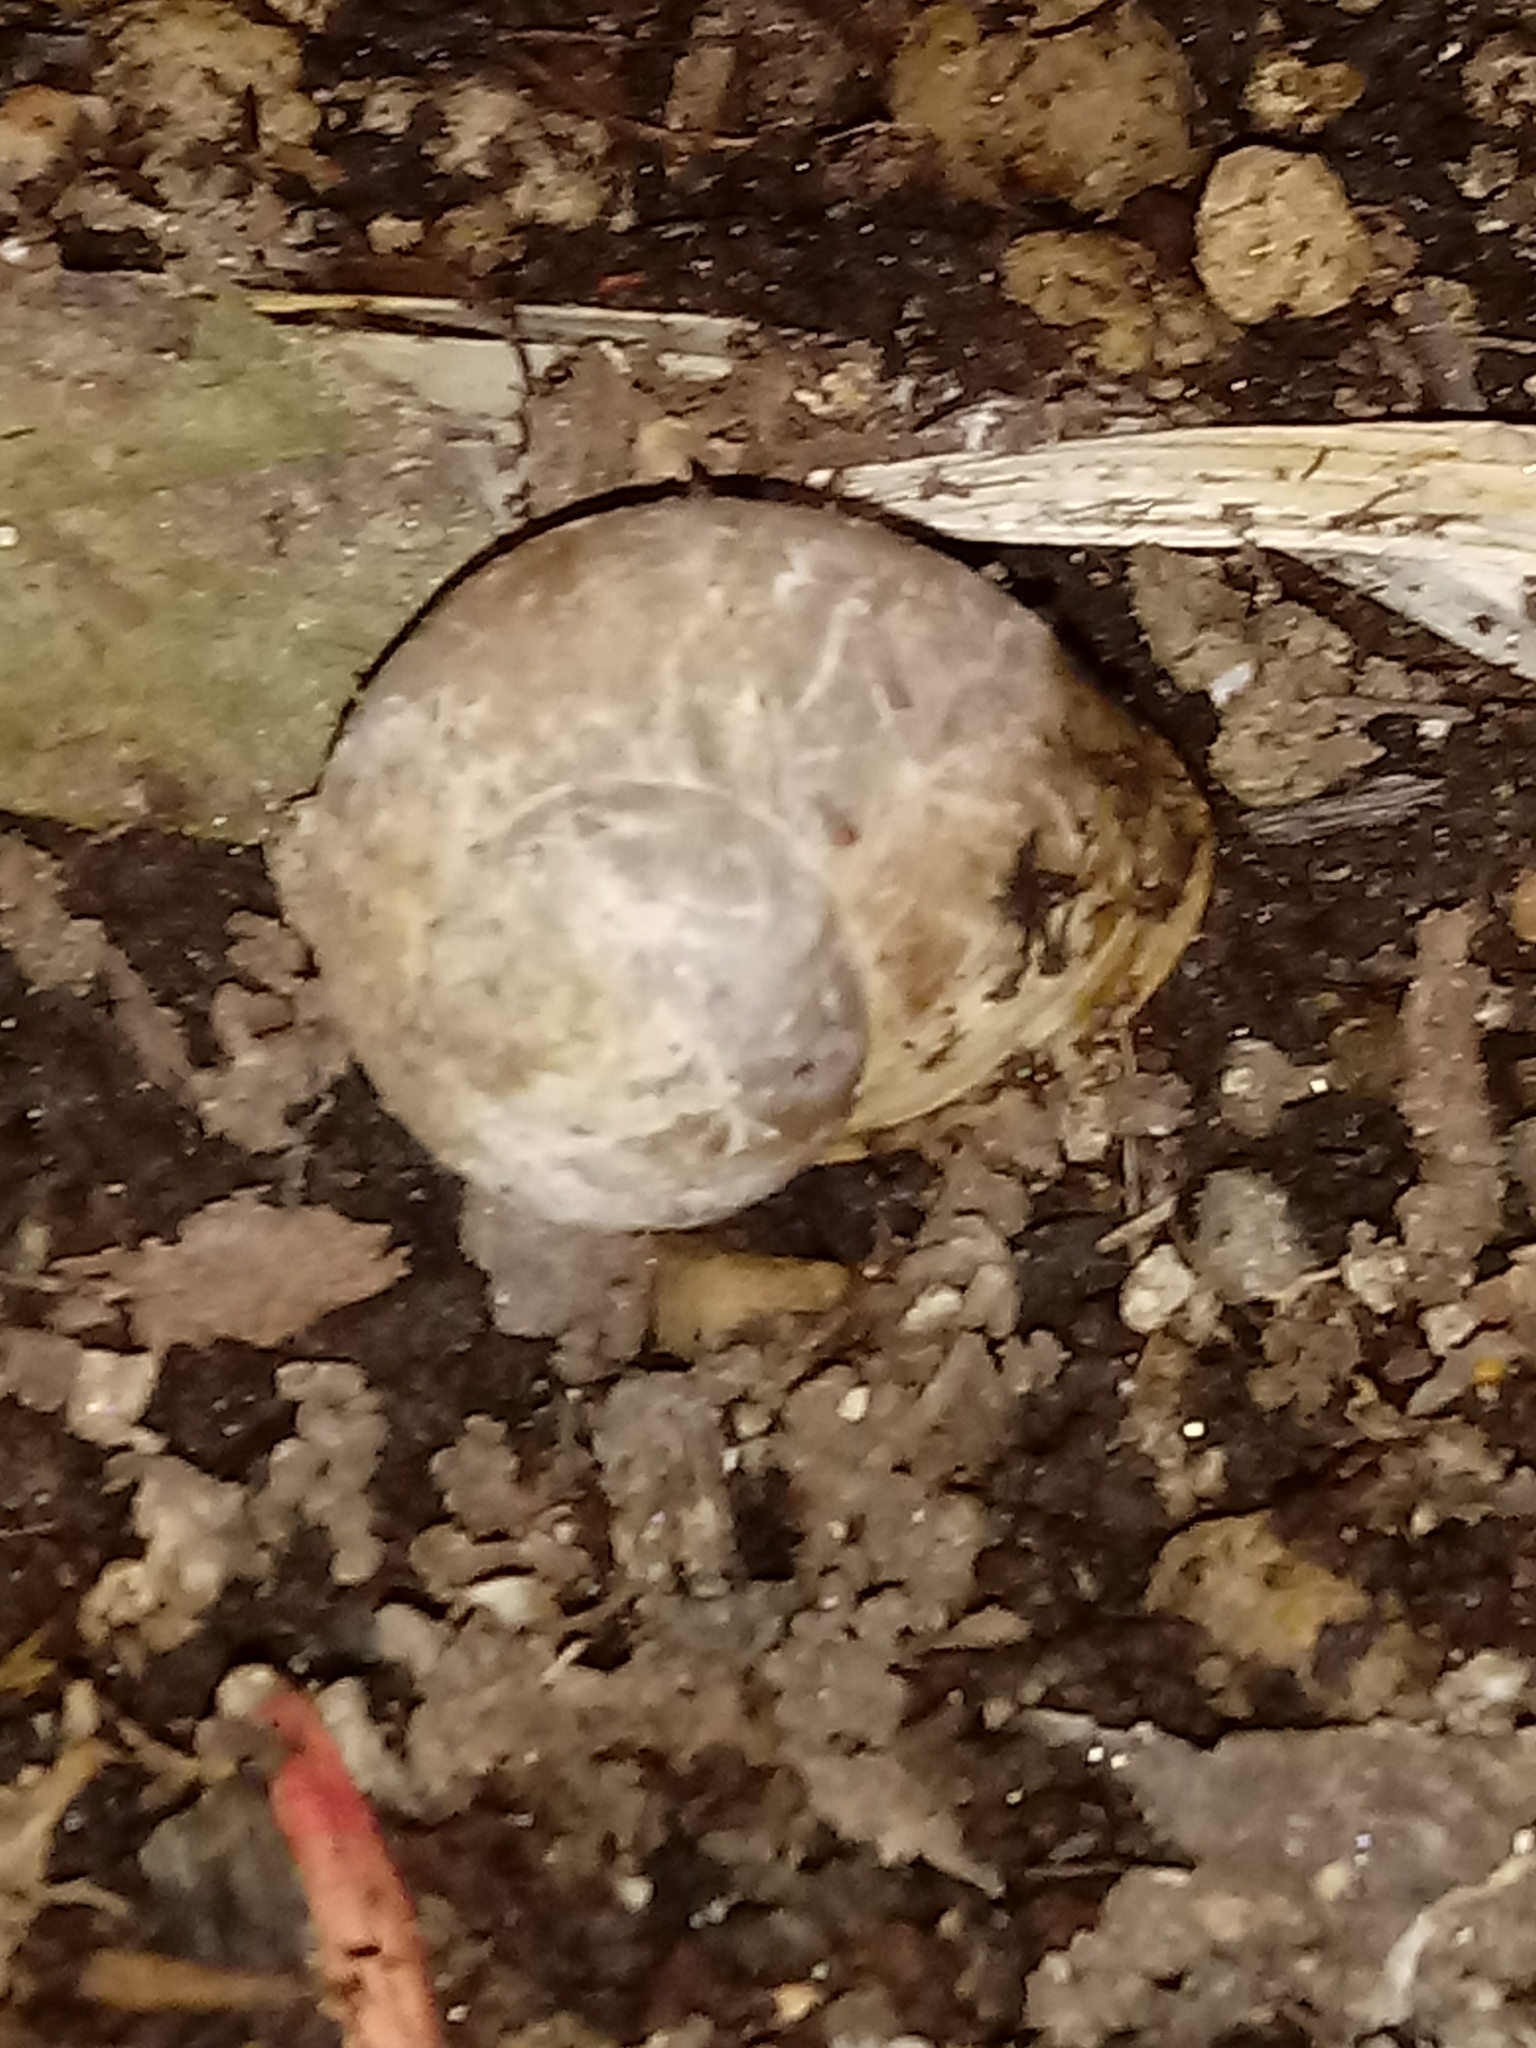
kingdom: Animalia
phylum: Mollusca
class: Gastropoda
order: Stylommatophora
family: Helicidae
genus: Cornu
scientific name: Cornu aspersum
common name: Brown garden snail
